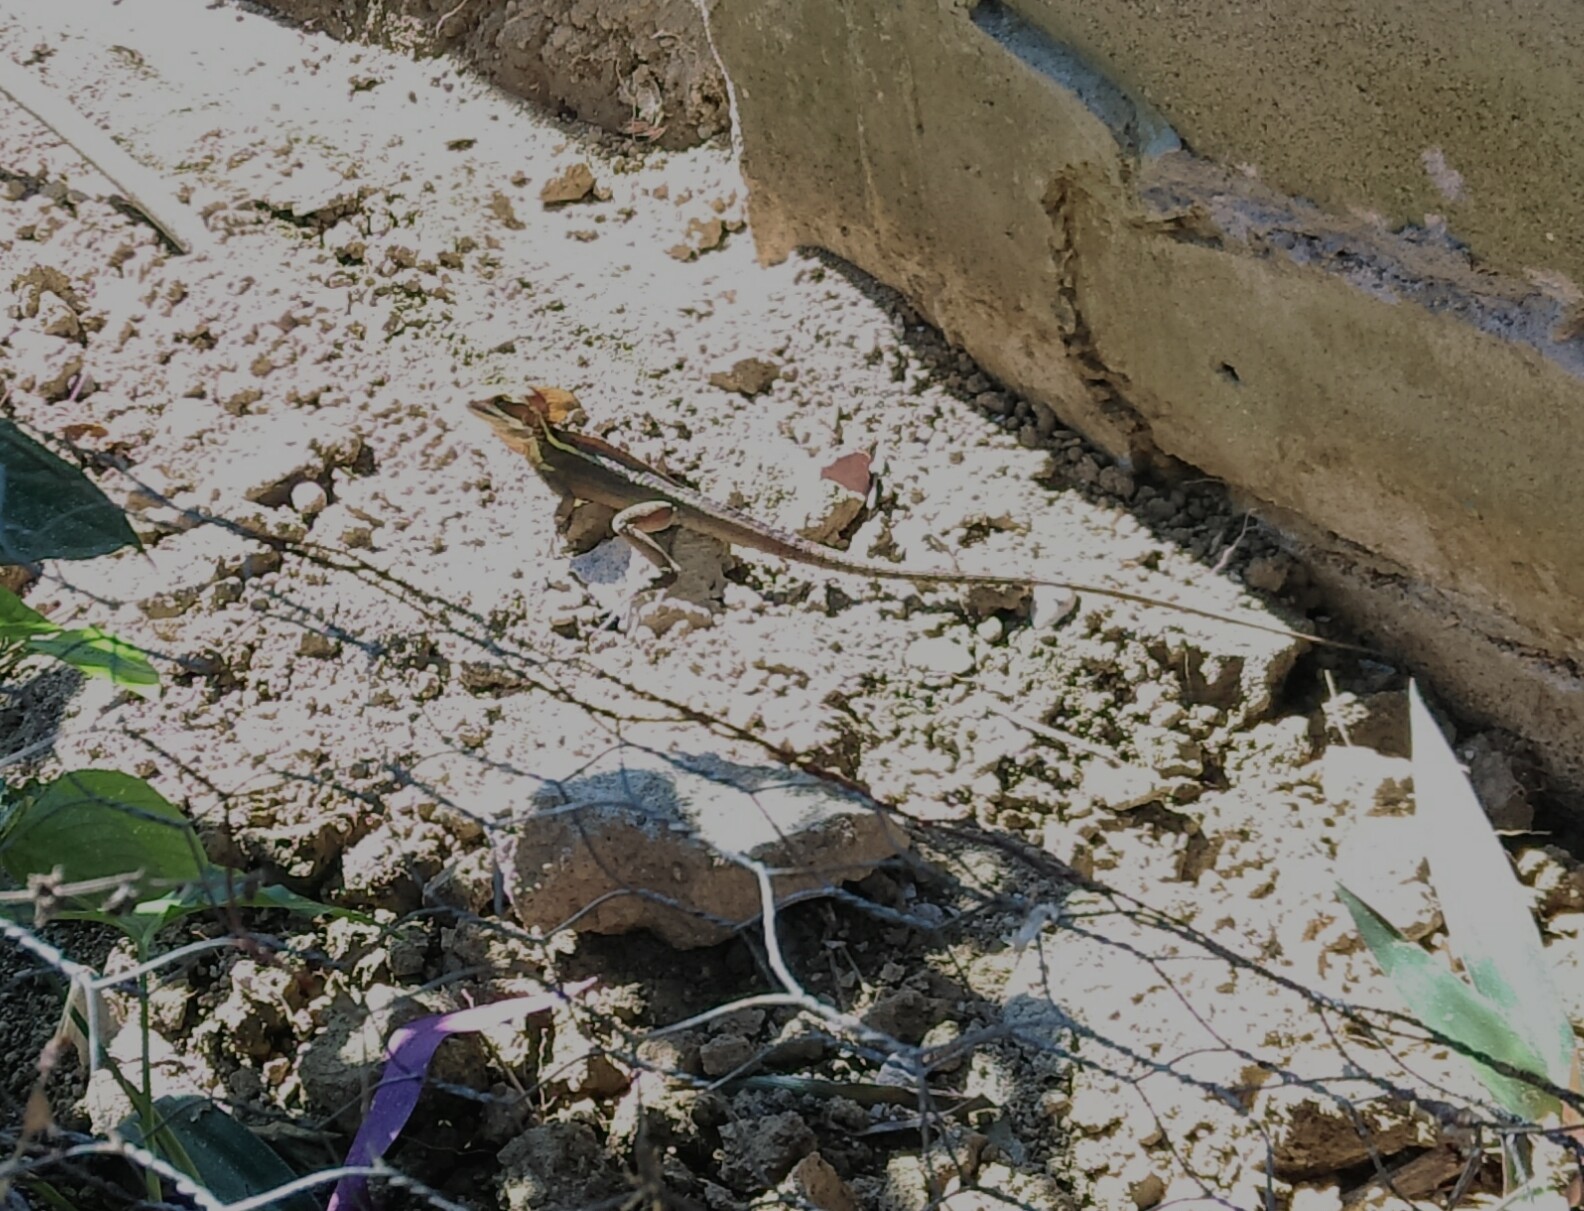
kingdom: Animalia
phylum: Chordata
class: Squamata
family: Corytophanidae
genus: Basiliscus
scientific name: Basiliscus vittatus
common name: Brown basilisk
